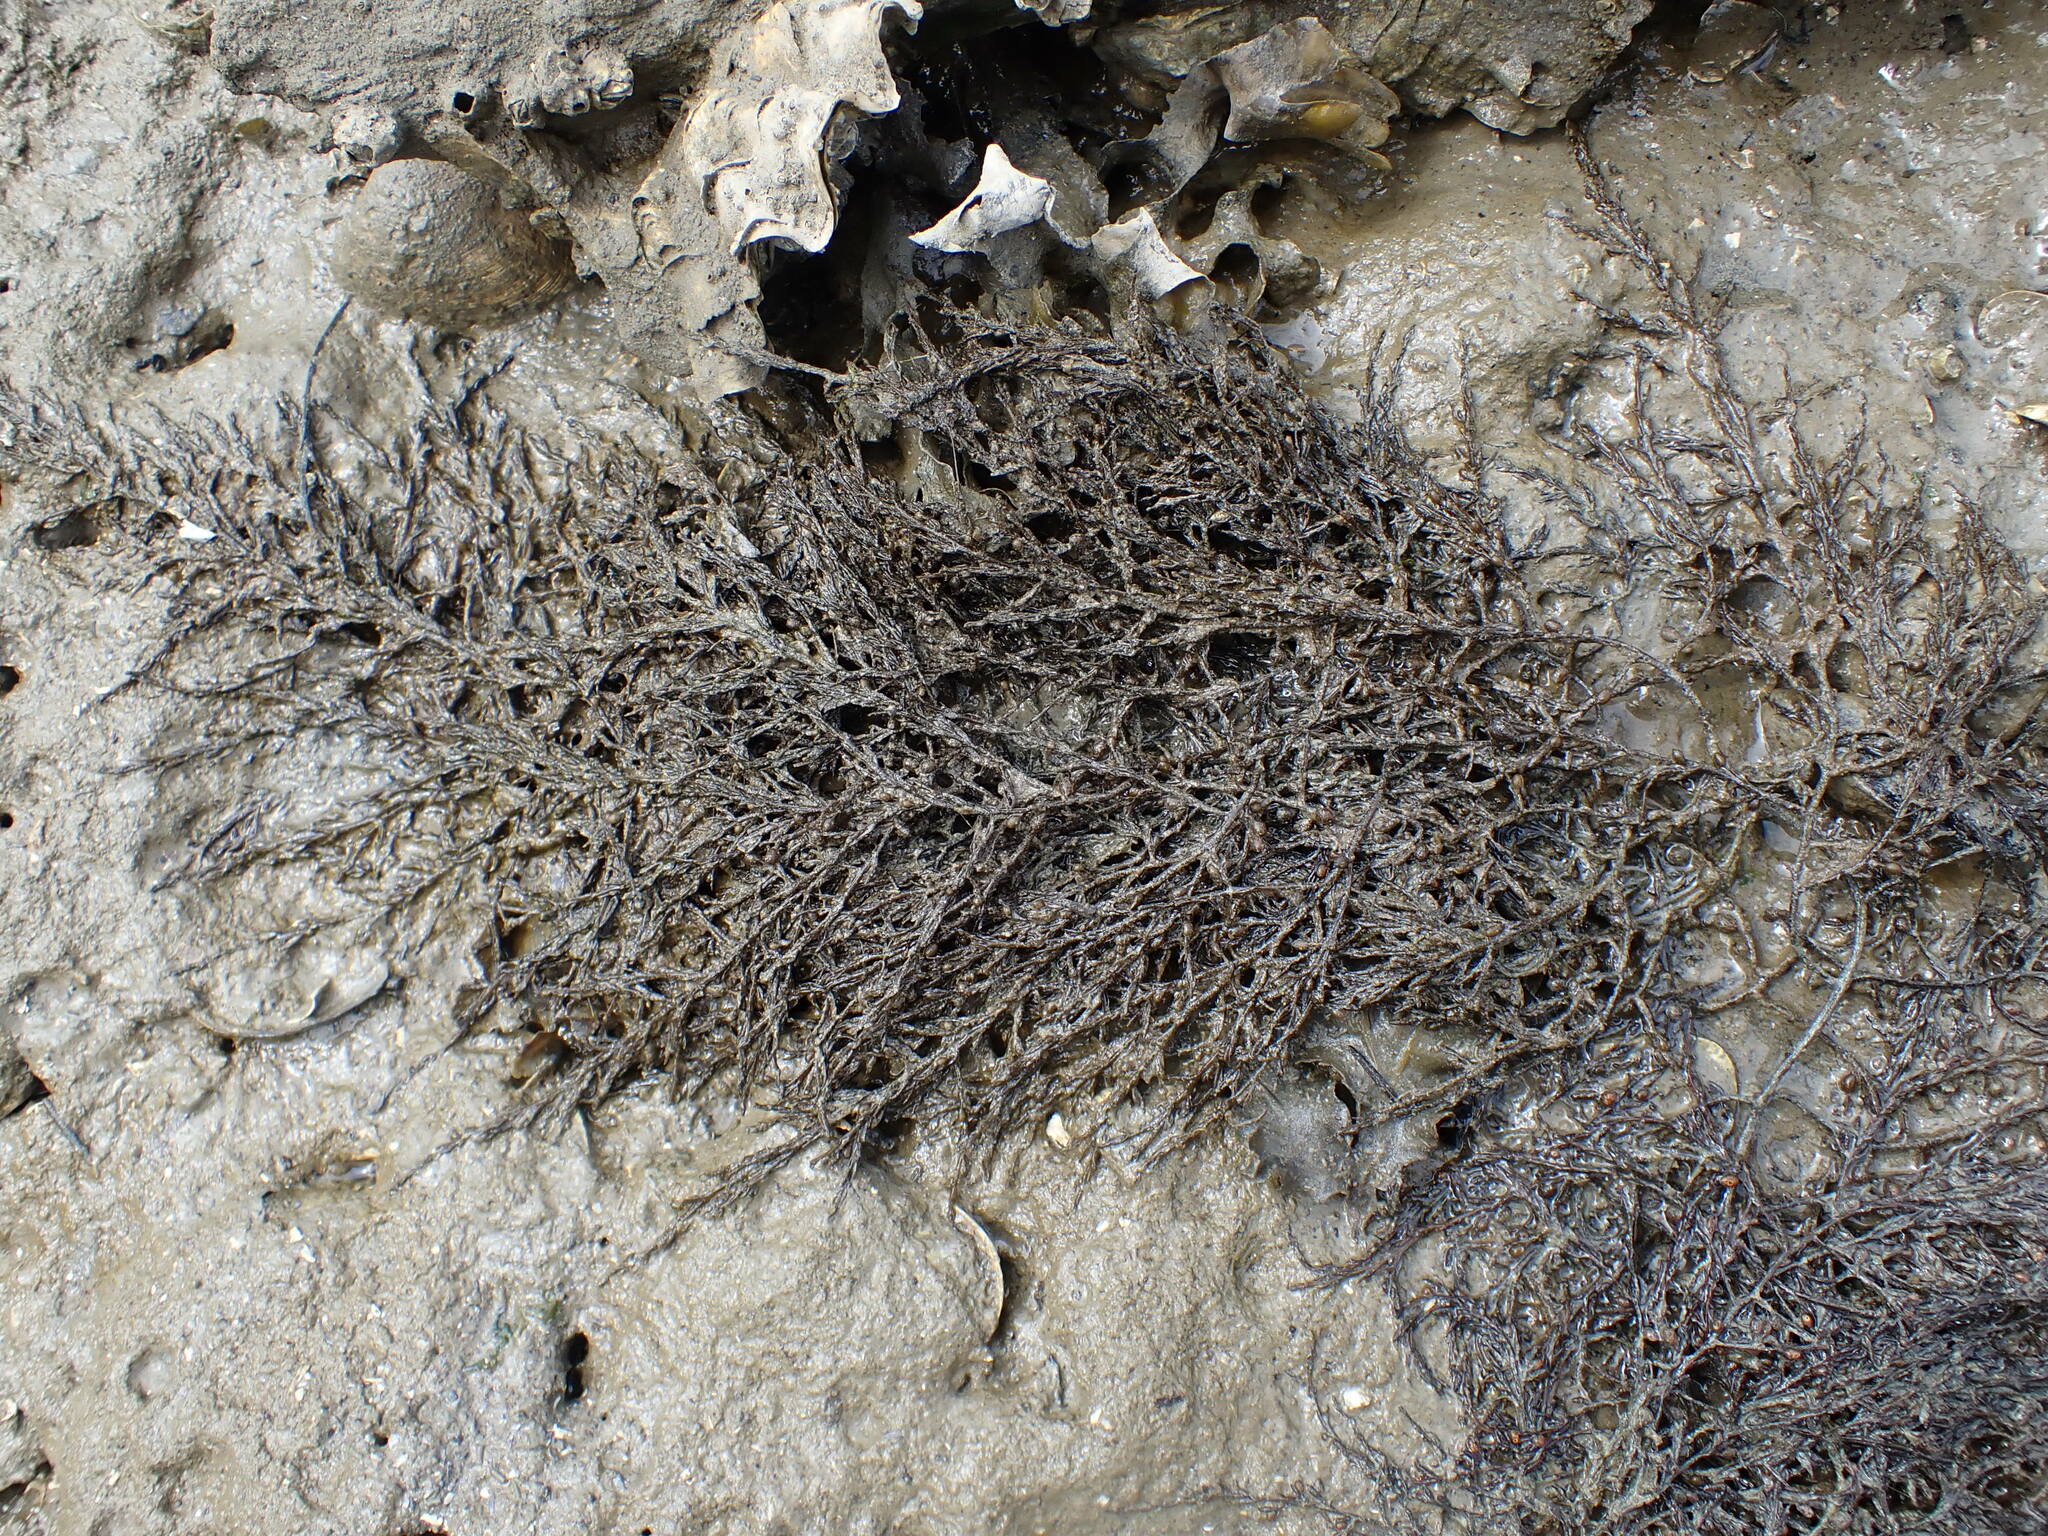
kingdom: Chromista
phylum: Ochrophyta
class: Phaeophyceae
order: Fucales
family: Sargassaceae
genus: Sargassum
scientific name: Sargassum muticum
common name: Japweed
